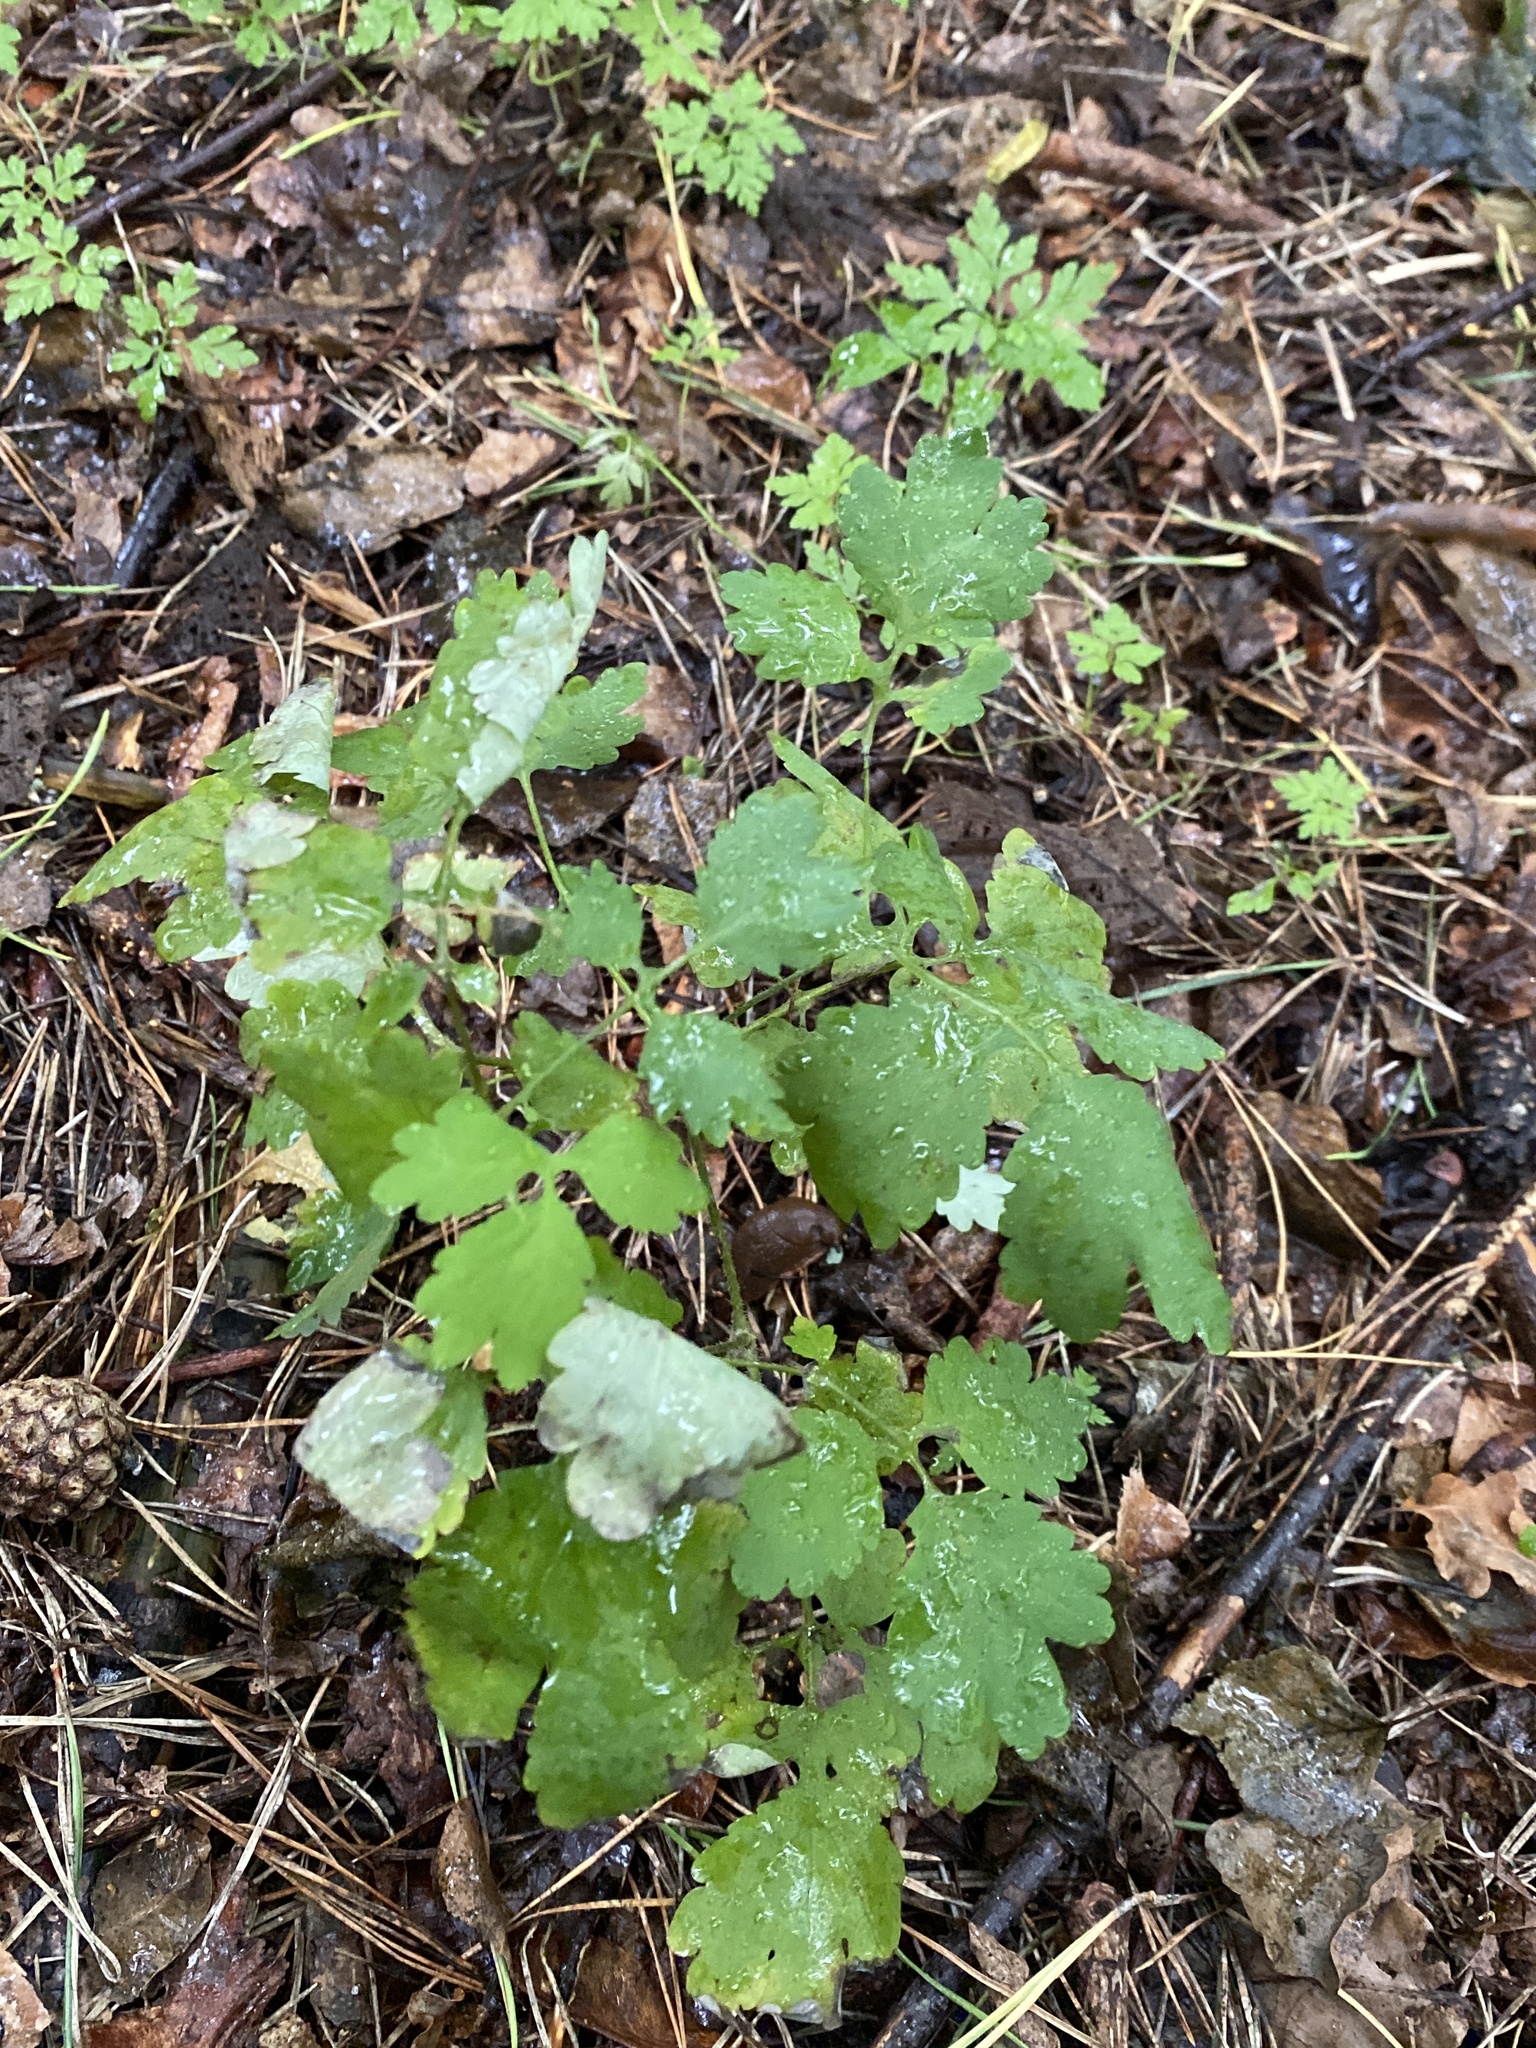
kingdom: Plantae
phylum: Tracheophyta
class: Magnoliopsida
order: Ranunculales
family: Papaveraceae
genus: Chelidonium
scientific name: Chelidonium majus
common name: Greater celandine
